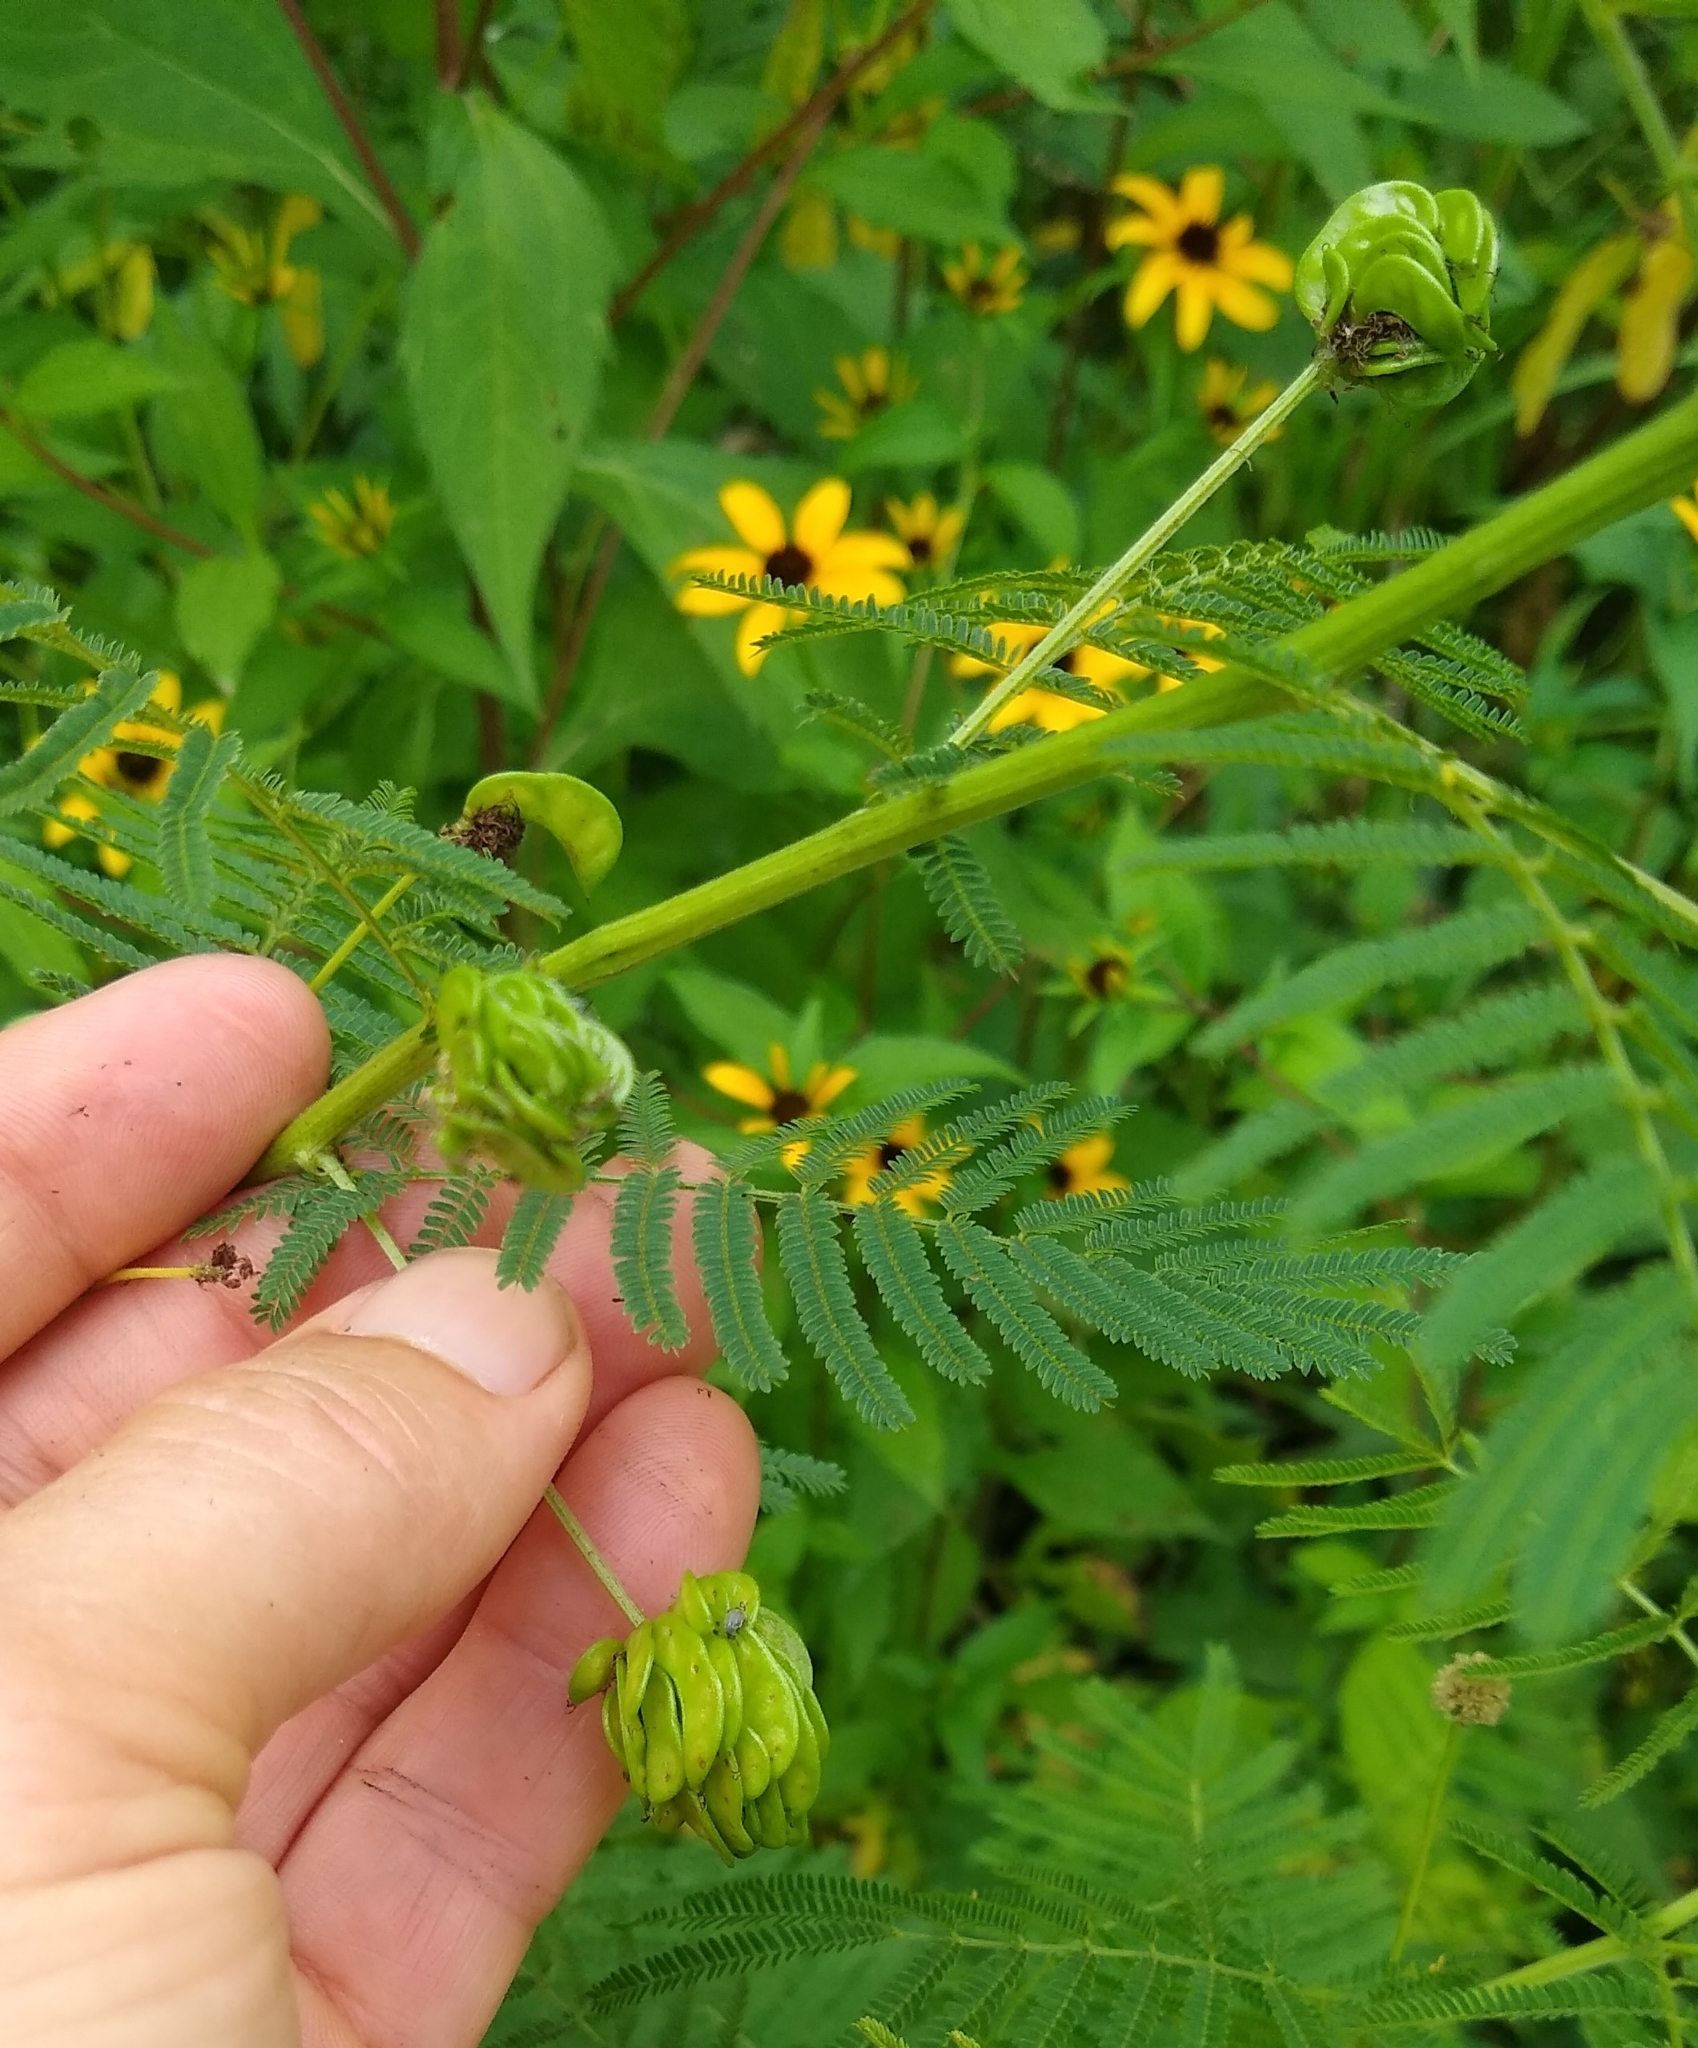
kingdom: Plantae
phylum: Tracheophyta
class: Magnoliopsida
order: Fabales
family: Fabaceae
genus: Desmanthus
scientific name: Desmanthus illinoensis
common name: Illinois bundle-flower
